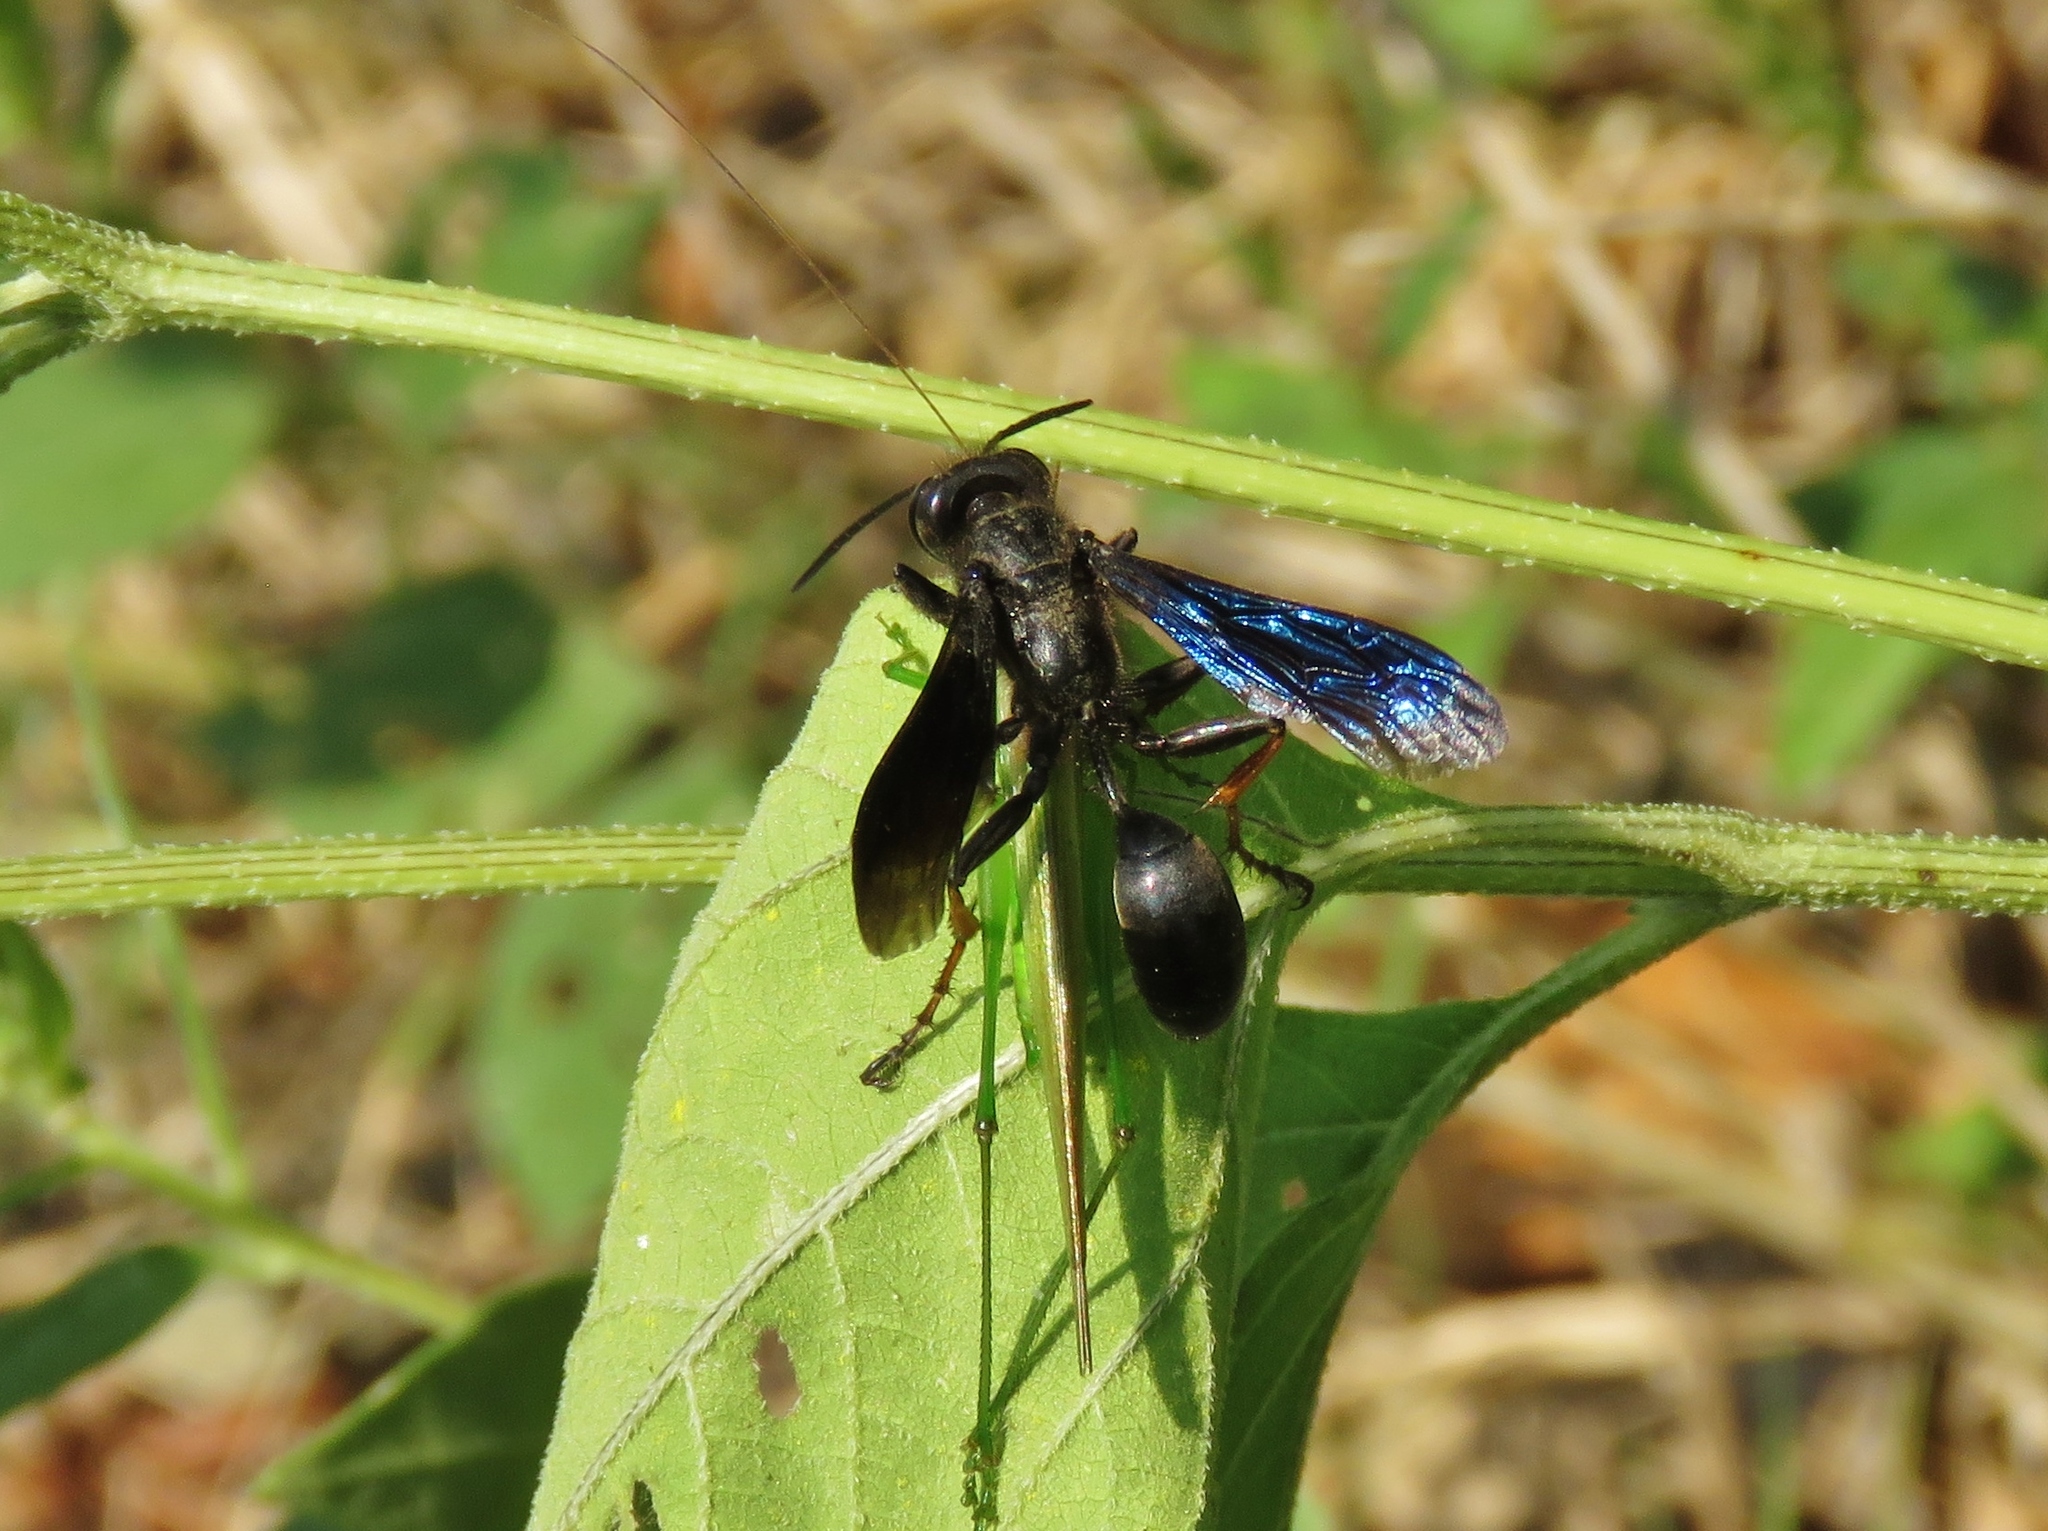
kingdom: Animalia
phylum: Arthropoda
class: Insecta
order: Hymenoptera
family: Sphecidae
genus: Isodontia
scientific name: Isodontia auripes
